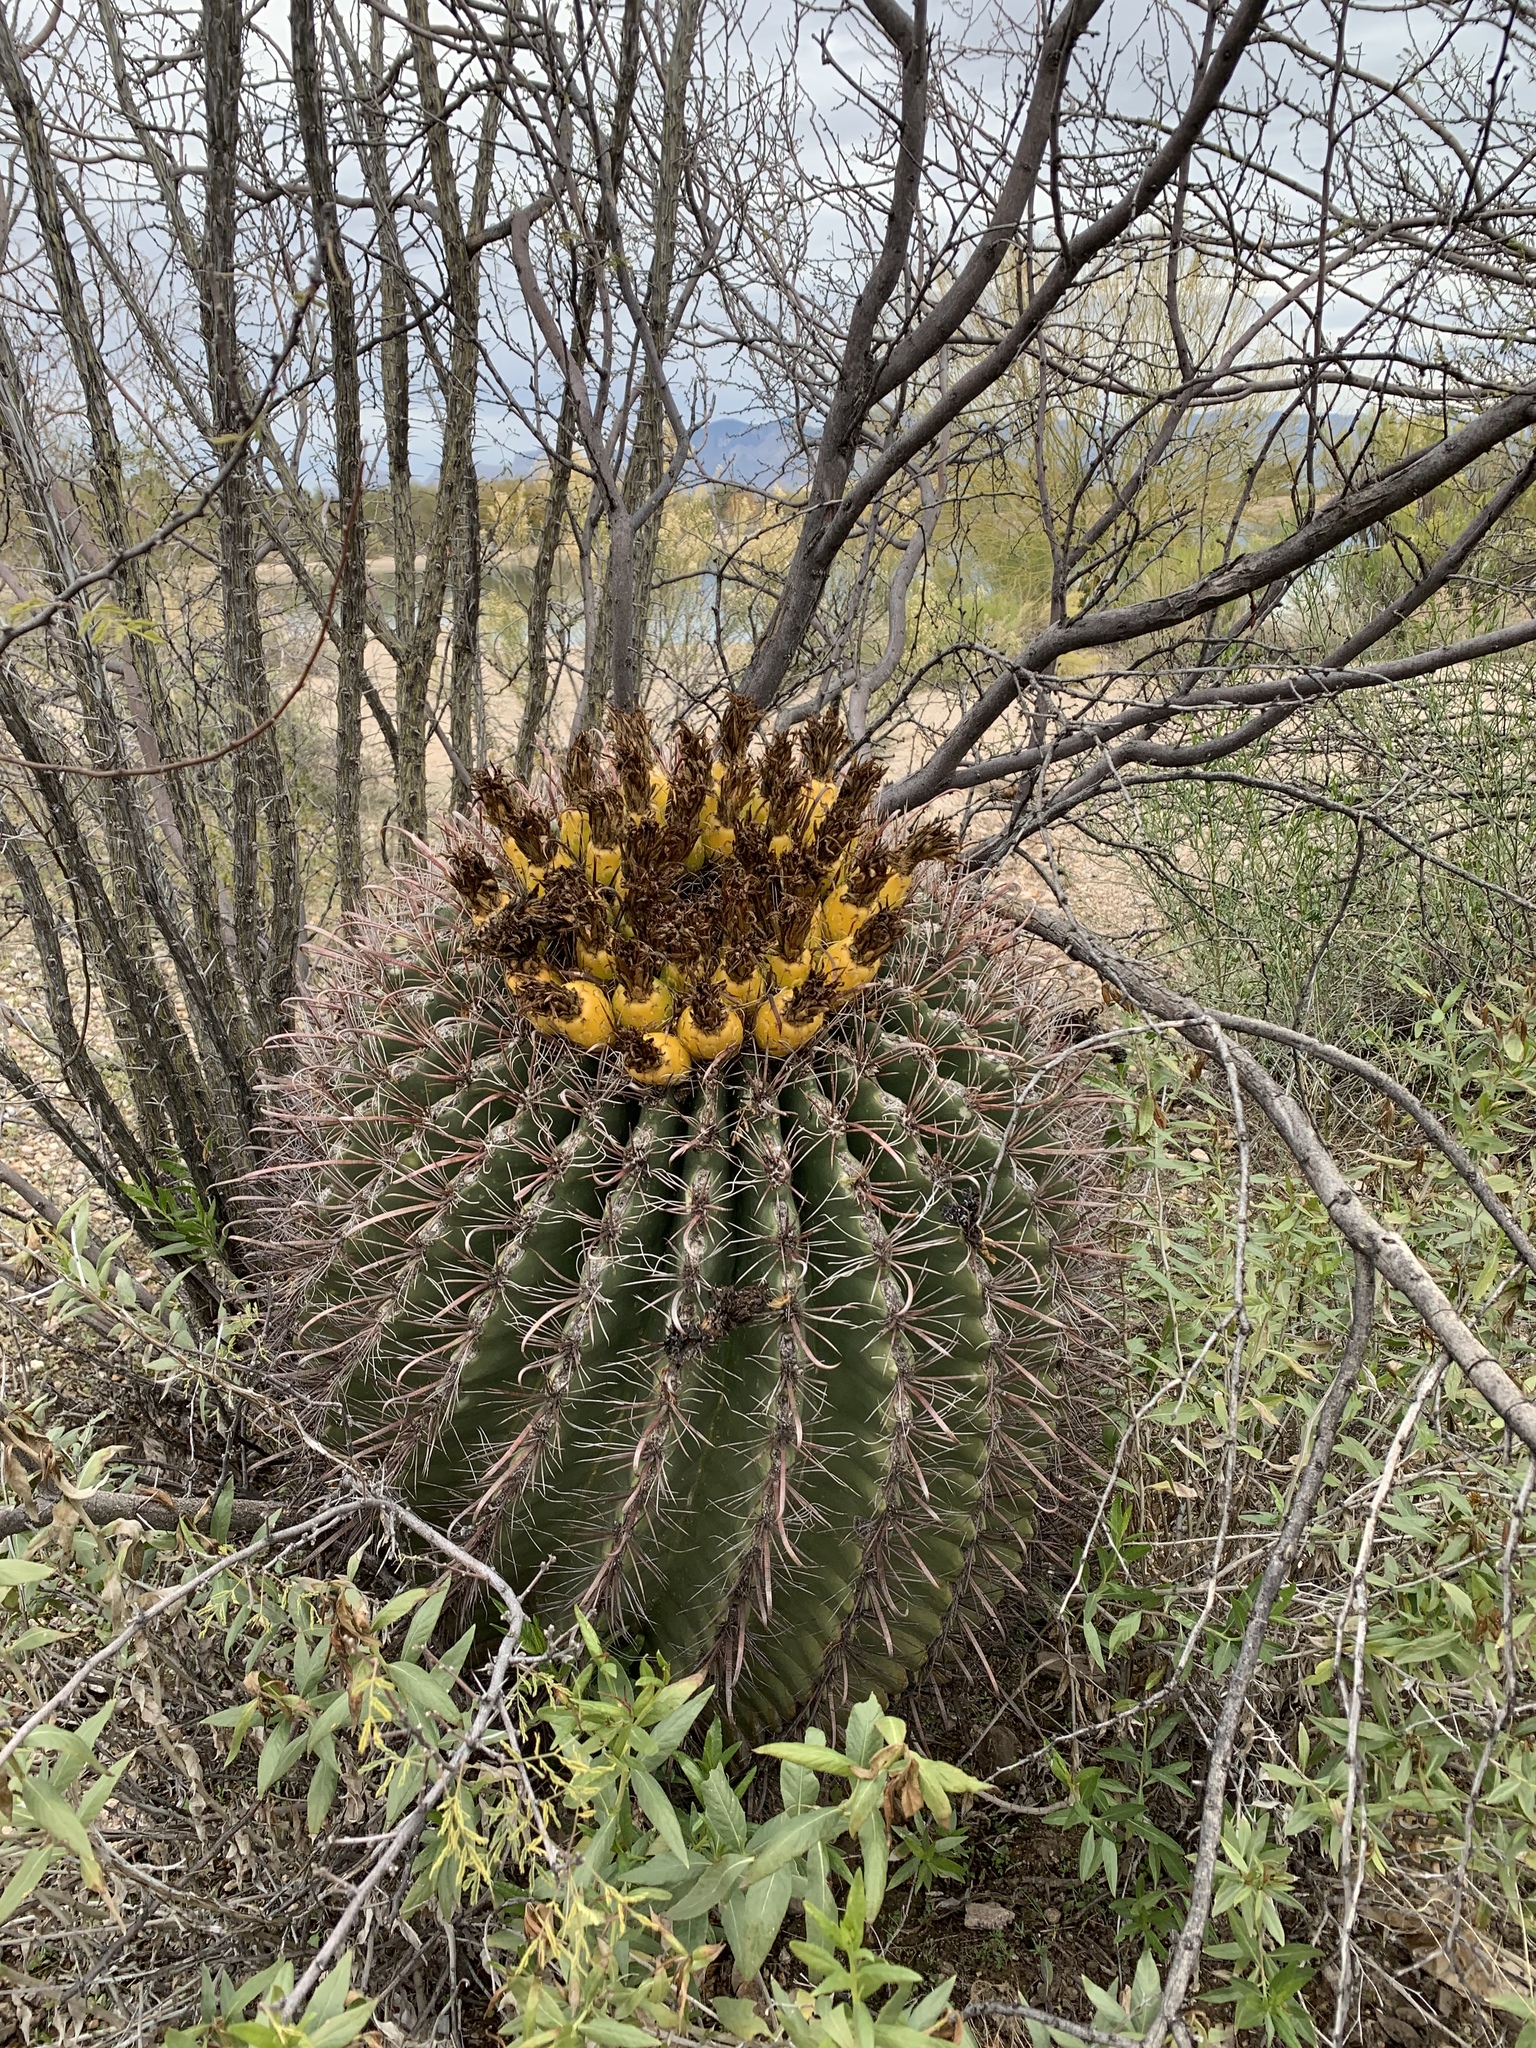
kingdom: Plantae
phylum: Tracheophyta
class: Magnoliopsida
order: Caryophyllales
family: Cactaceae
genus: Ferocactus
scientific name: Ferocactus wislizeni
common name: Candy barrel cactus
